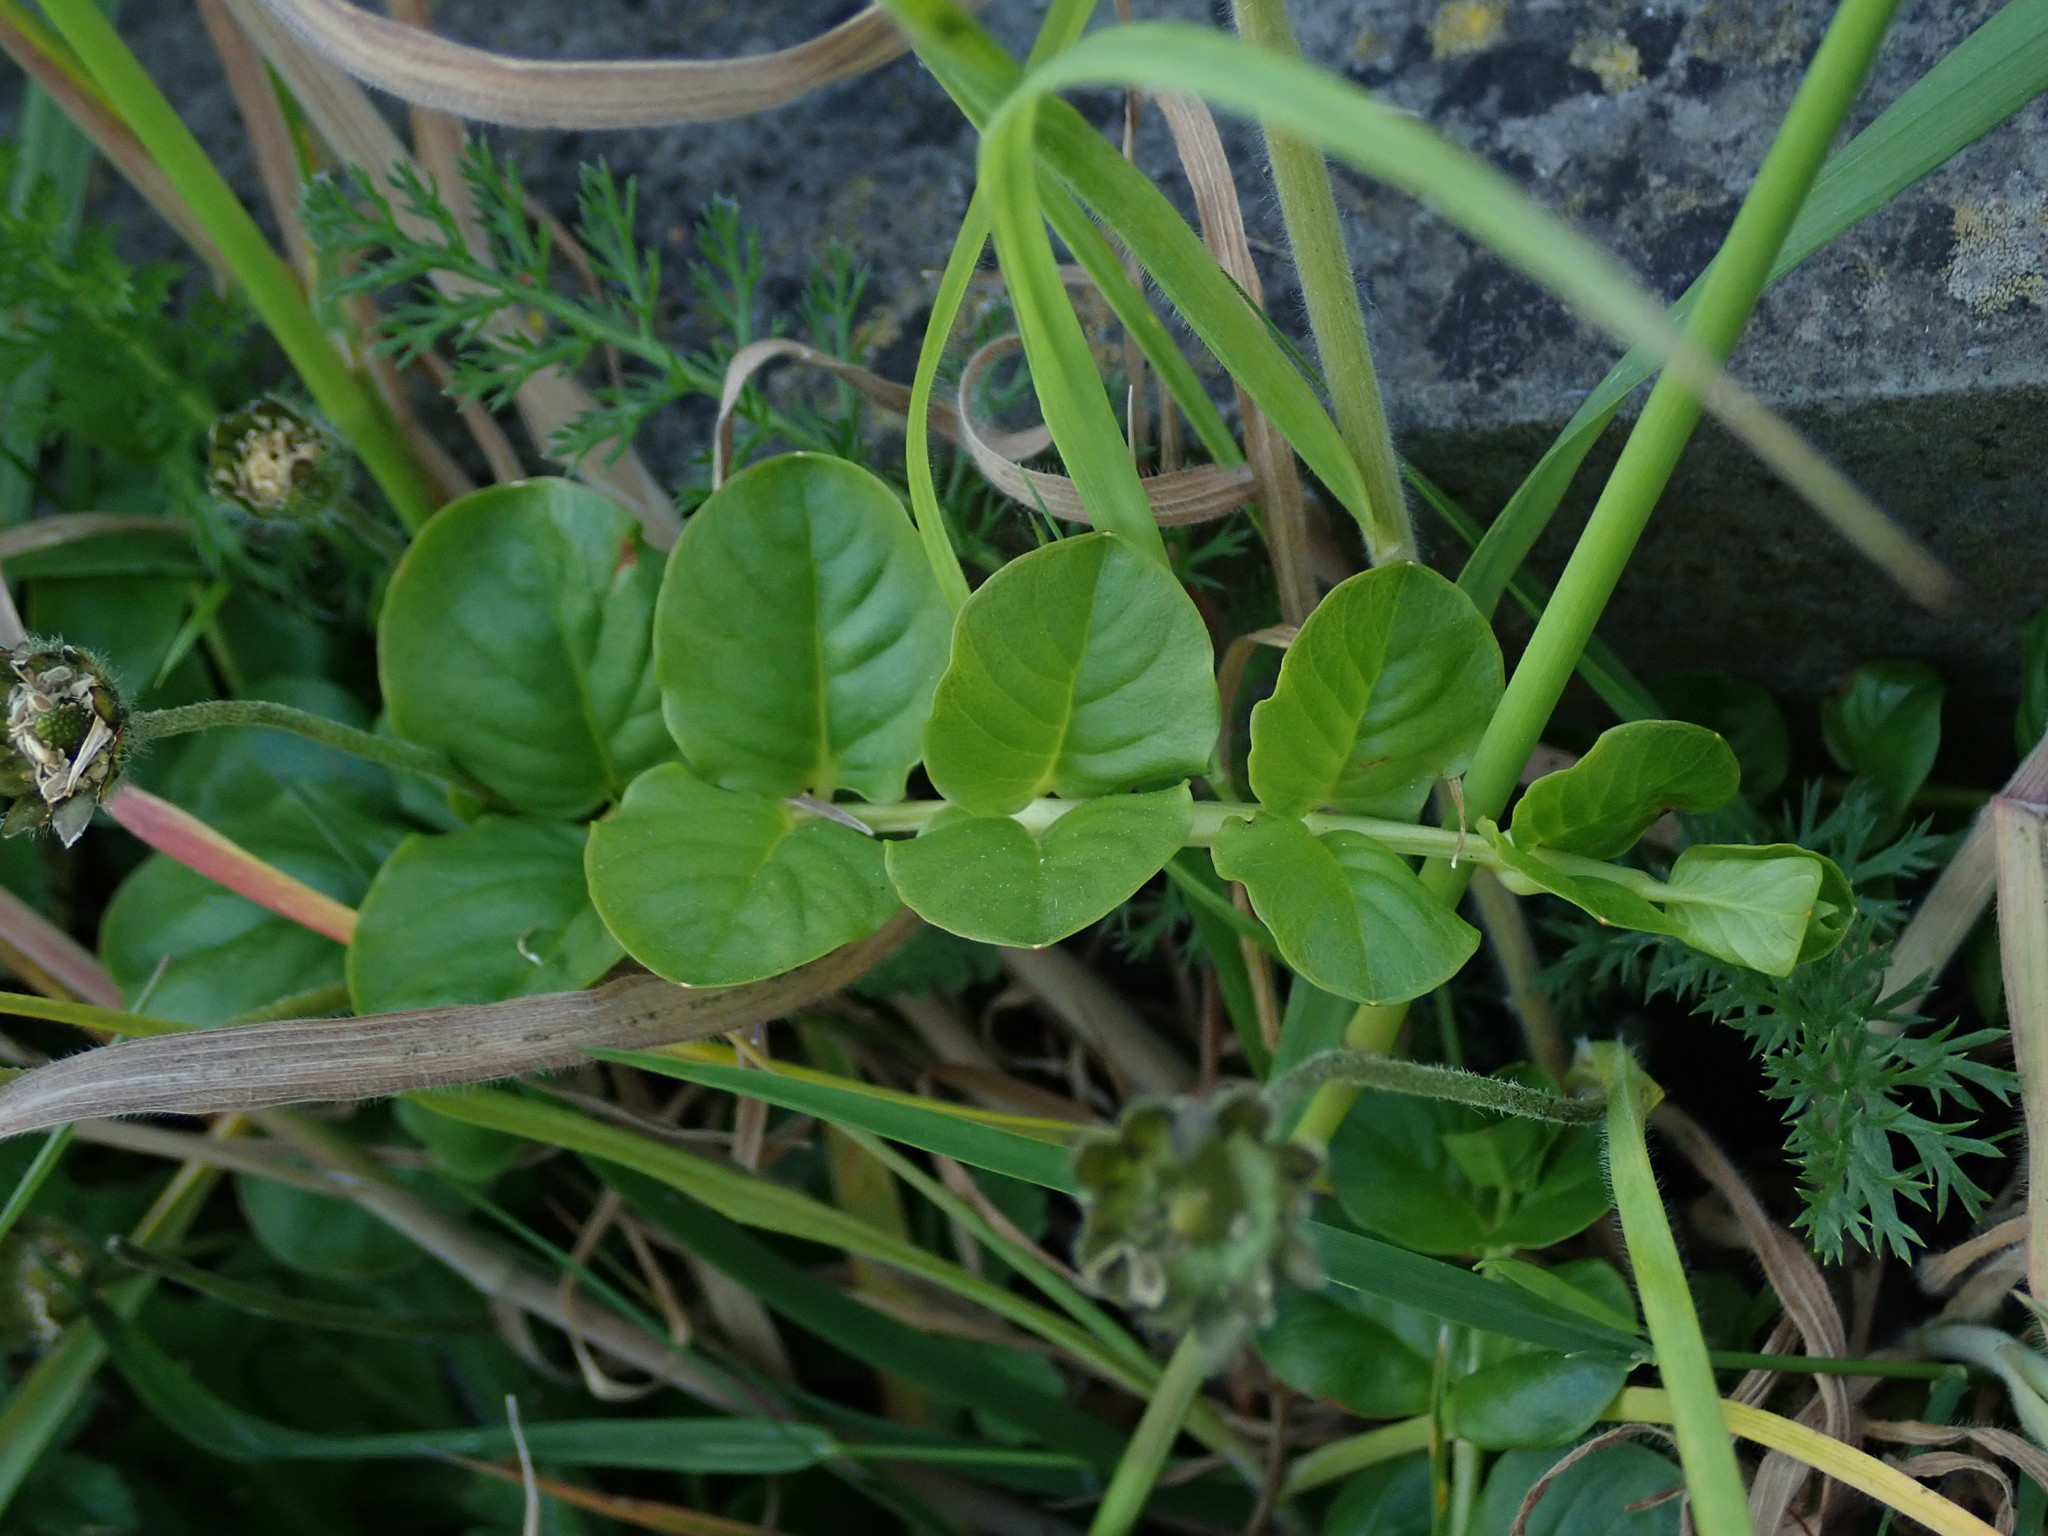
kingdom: Plantae
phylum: Tracheophyta
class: Magnoliopsida
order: Ericales
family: Primulaceae
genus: Lysimachia
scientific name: Lysimachia nummularia
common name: Moneywort
